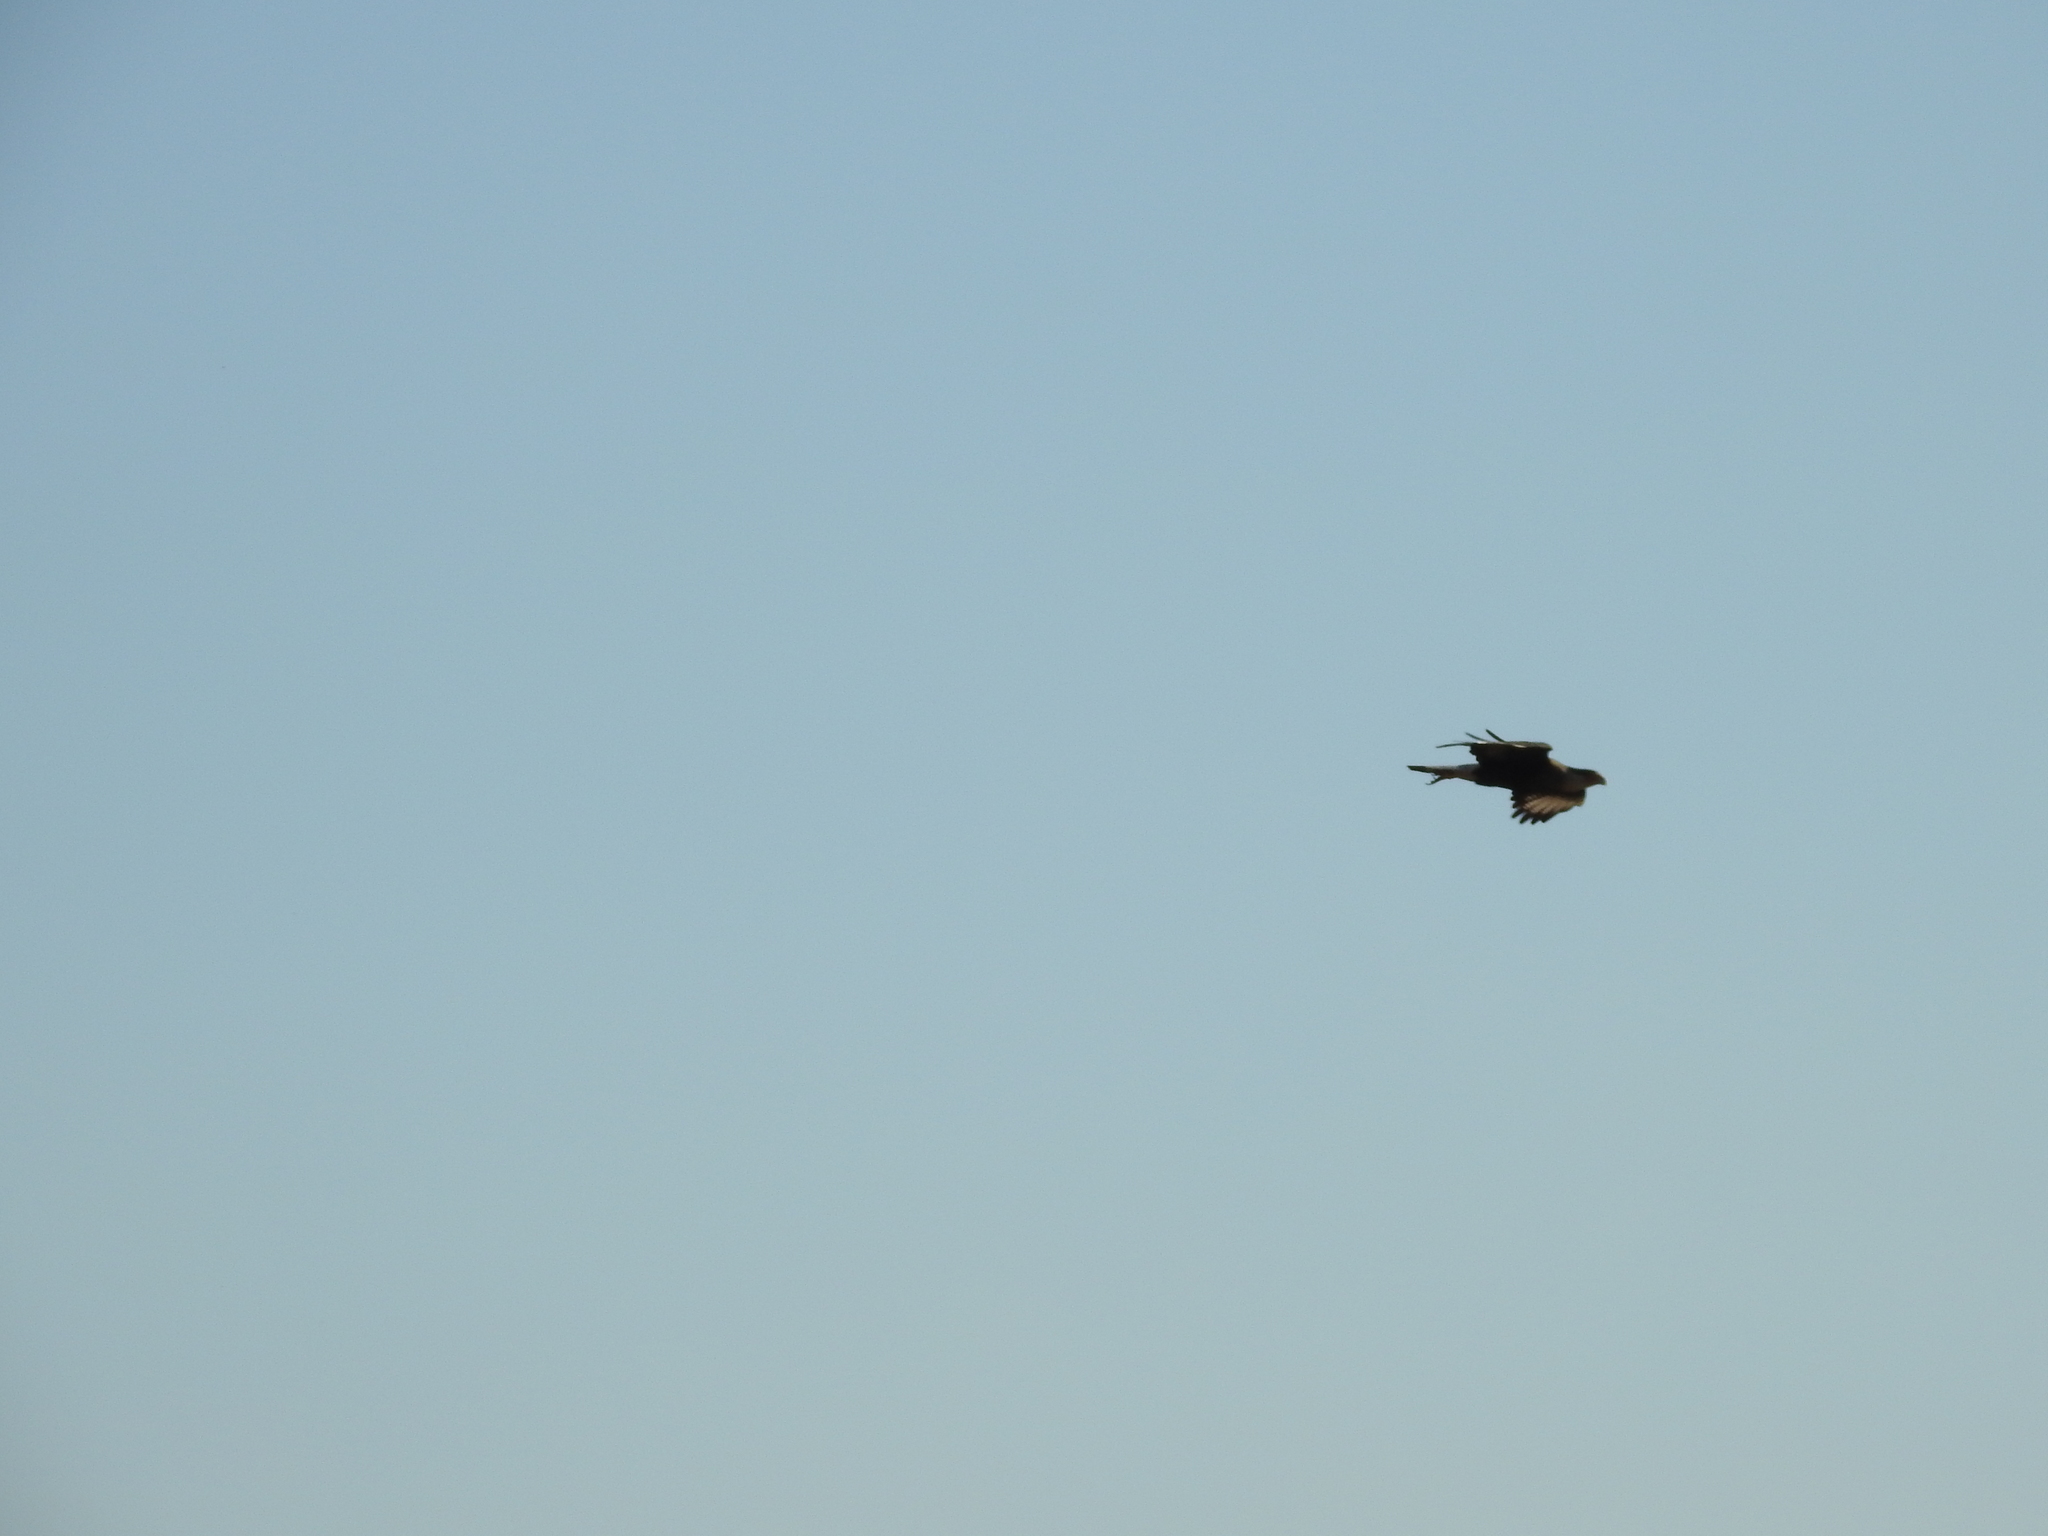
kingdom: Animalia
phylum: Chordata
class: Aves
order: Falconiformes
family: Falconidae
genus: Caracara
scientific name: Caracara plancus
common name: Southern caracara
